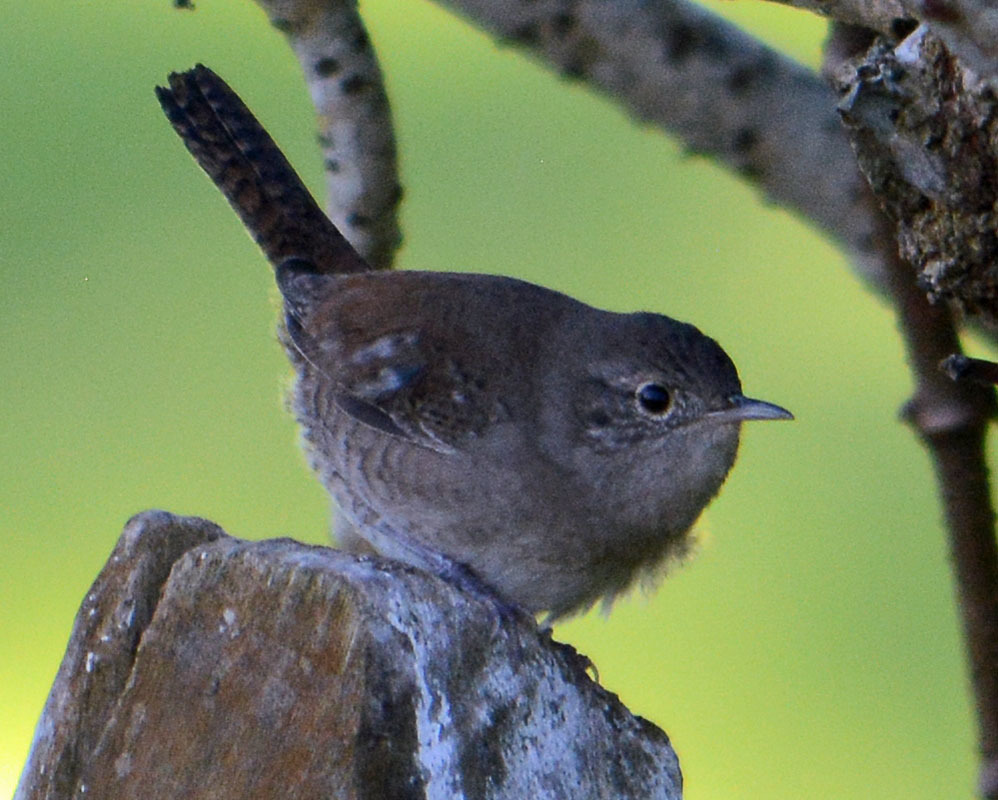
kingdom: Animalia
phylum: Chordata
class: Aves
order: Passeriformes
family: Troglodytidae
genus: Troglodytes
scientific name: Troglodytes aedon
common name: House wren
